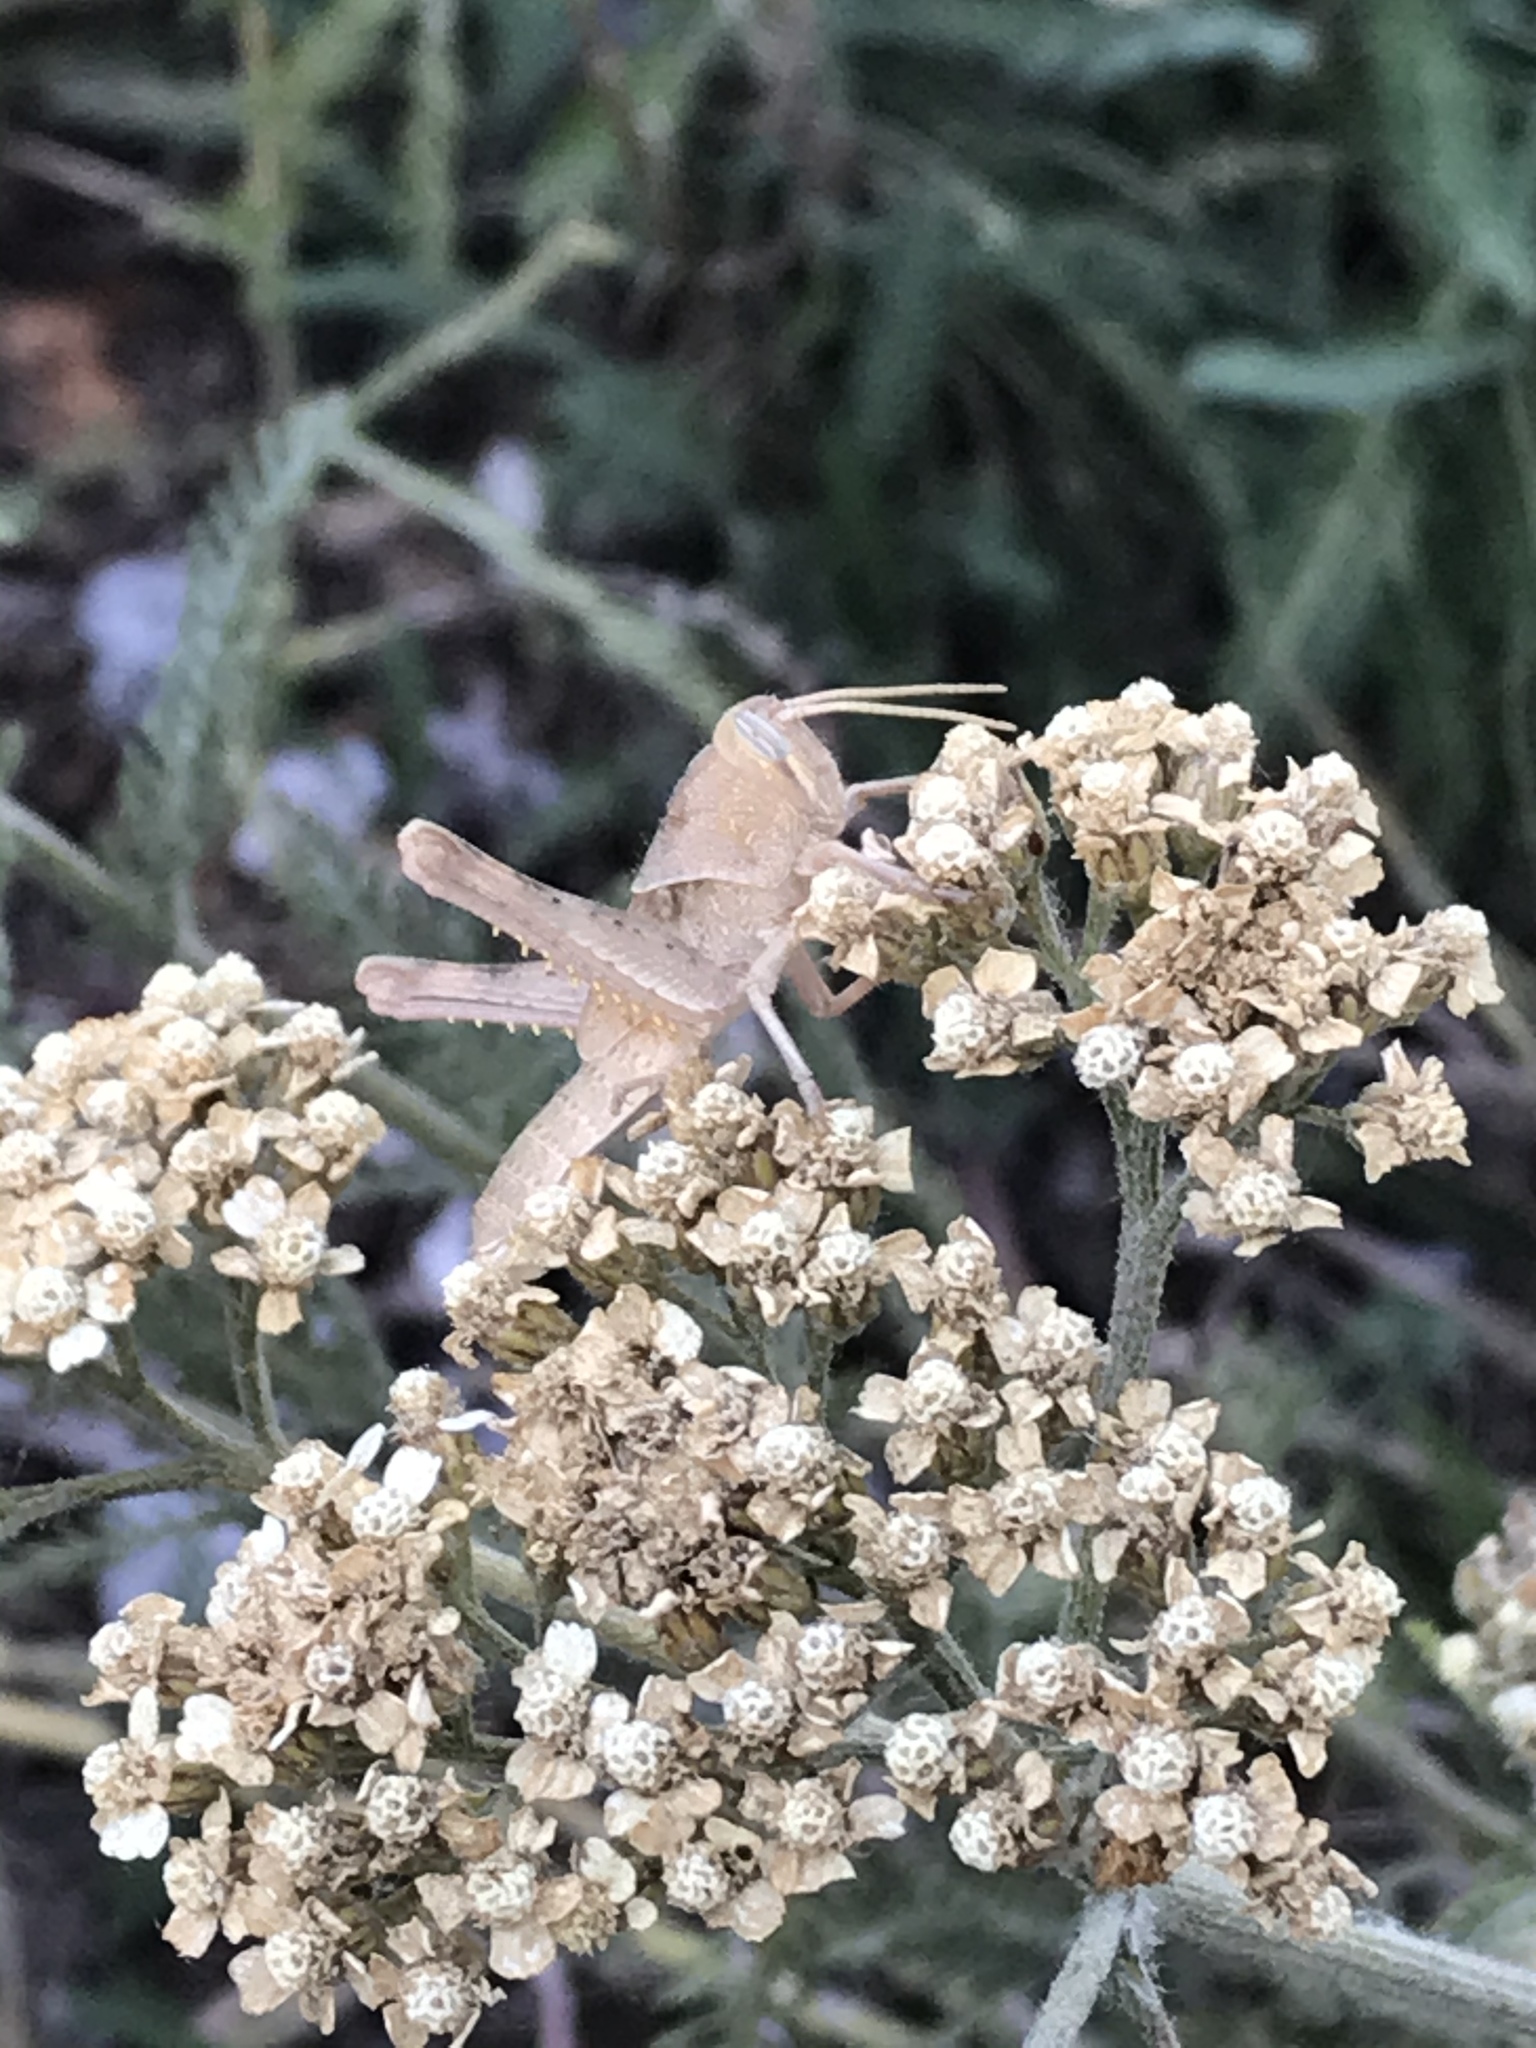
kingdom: Animalia
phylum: Arthropoda
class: Insecta
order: Orthoptera
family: Acrididae
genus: Schistocerca
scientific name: Schistocerca nitens
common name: Vagrant grasshopper
